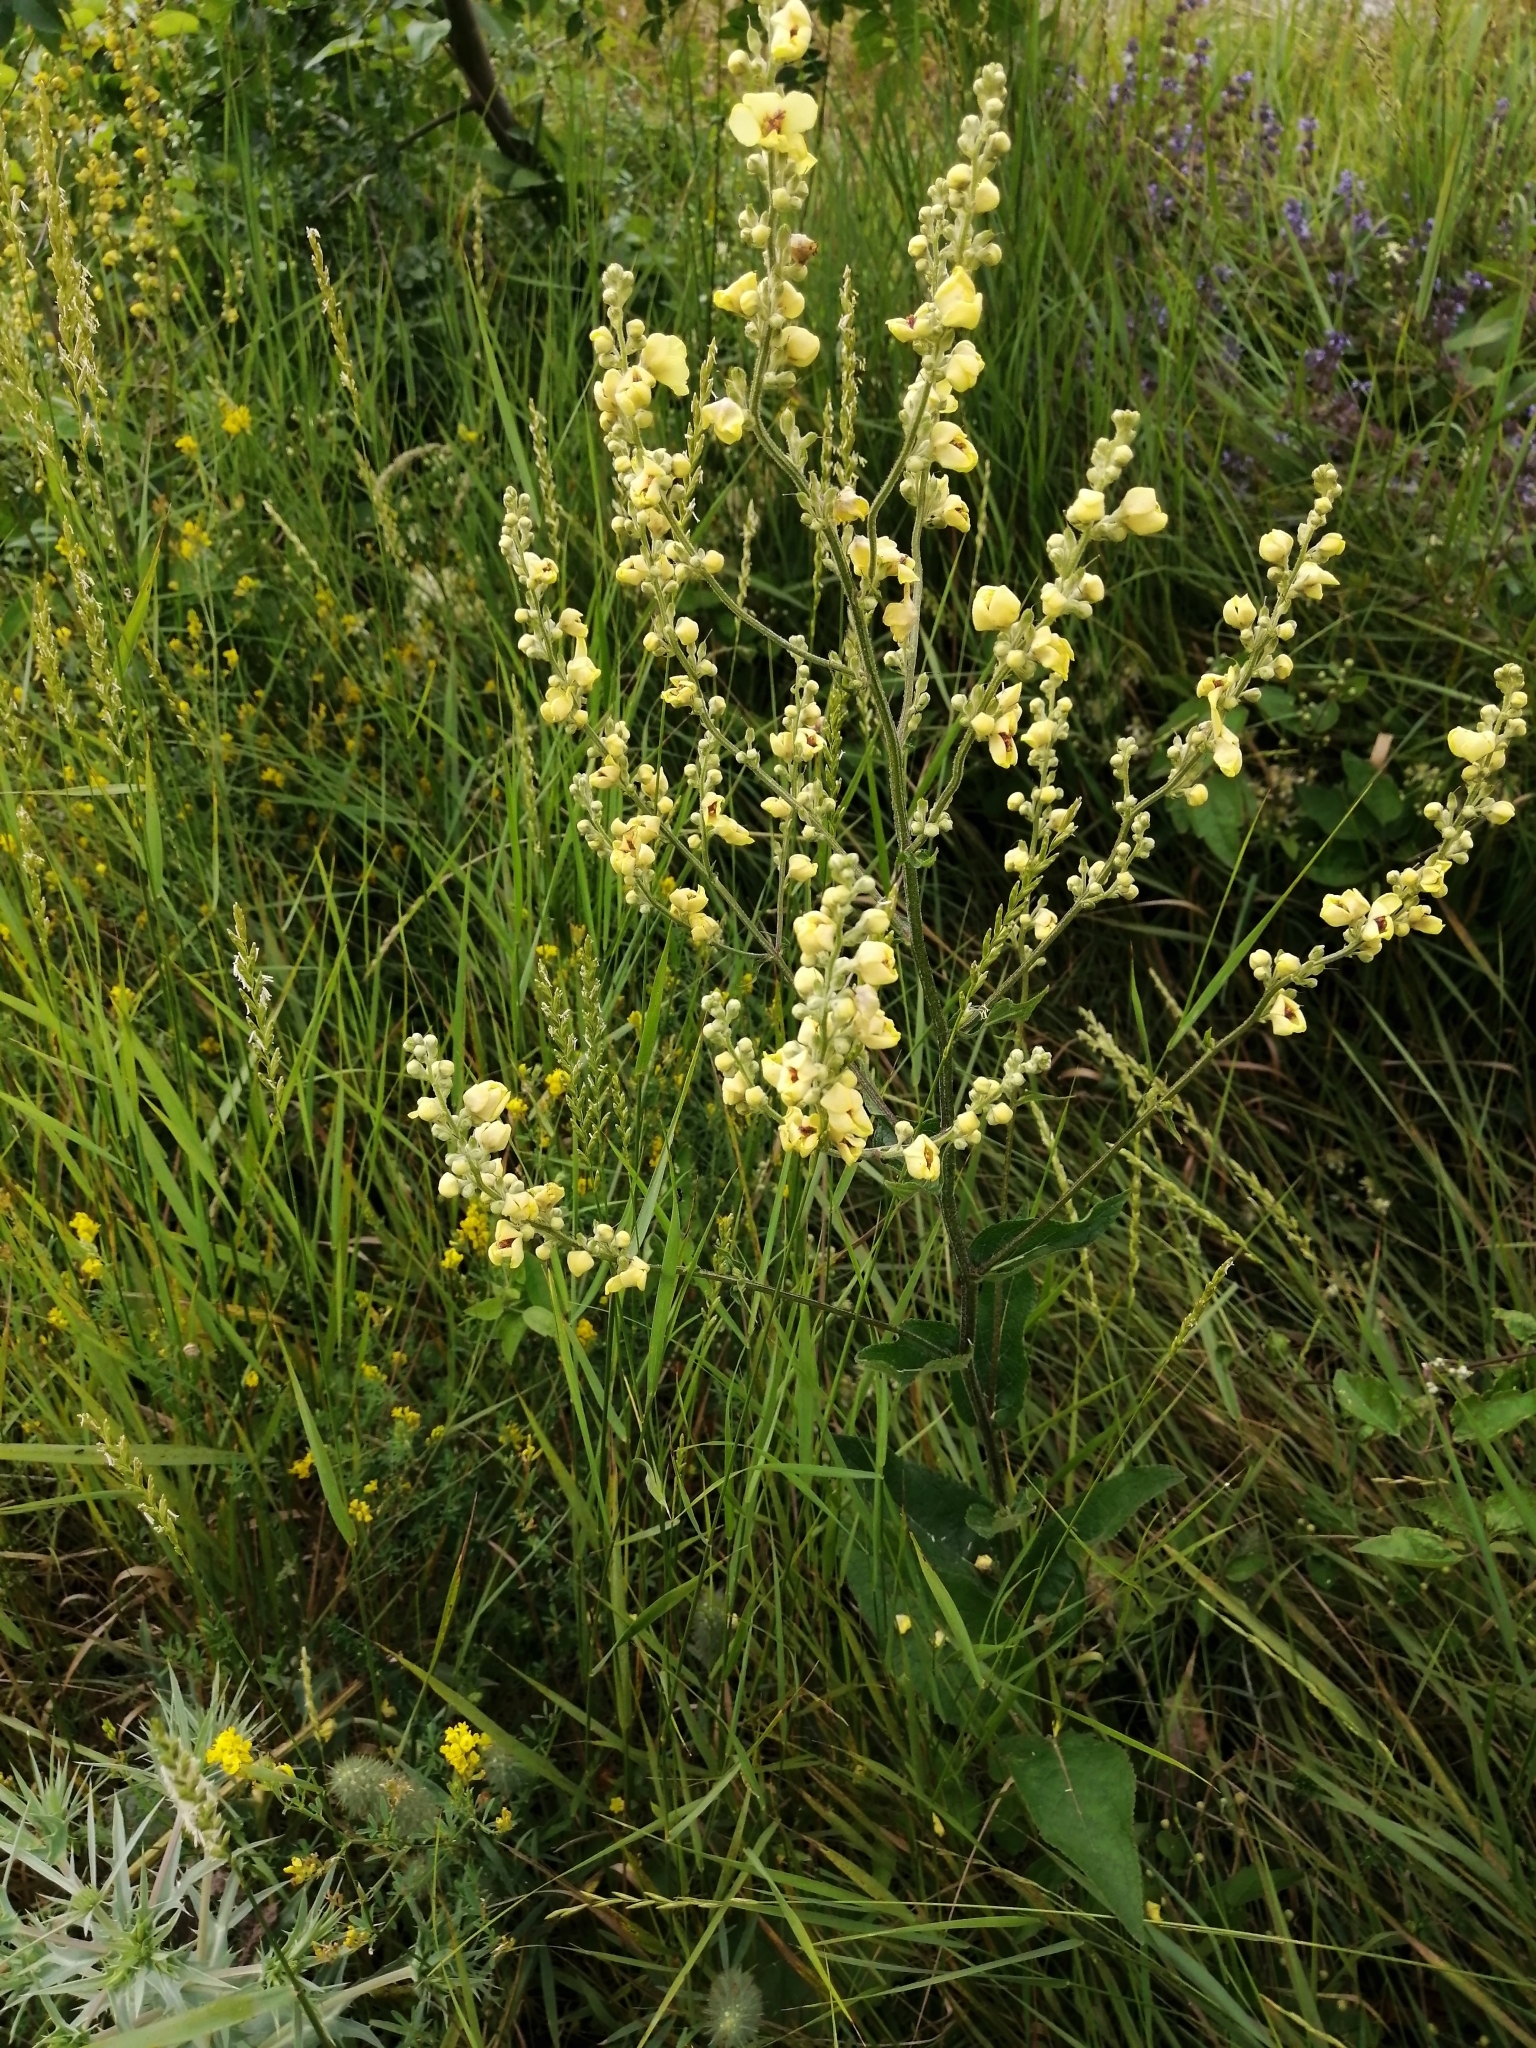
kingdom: Plantae
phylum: Tracheophyta
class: Magnoliopsida
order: Lamiales
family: Scrophulariaceae
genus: Verbascum
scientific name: Verbascum chaixii
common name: Nettle-leaved mullein
